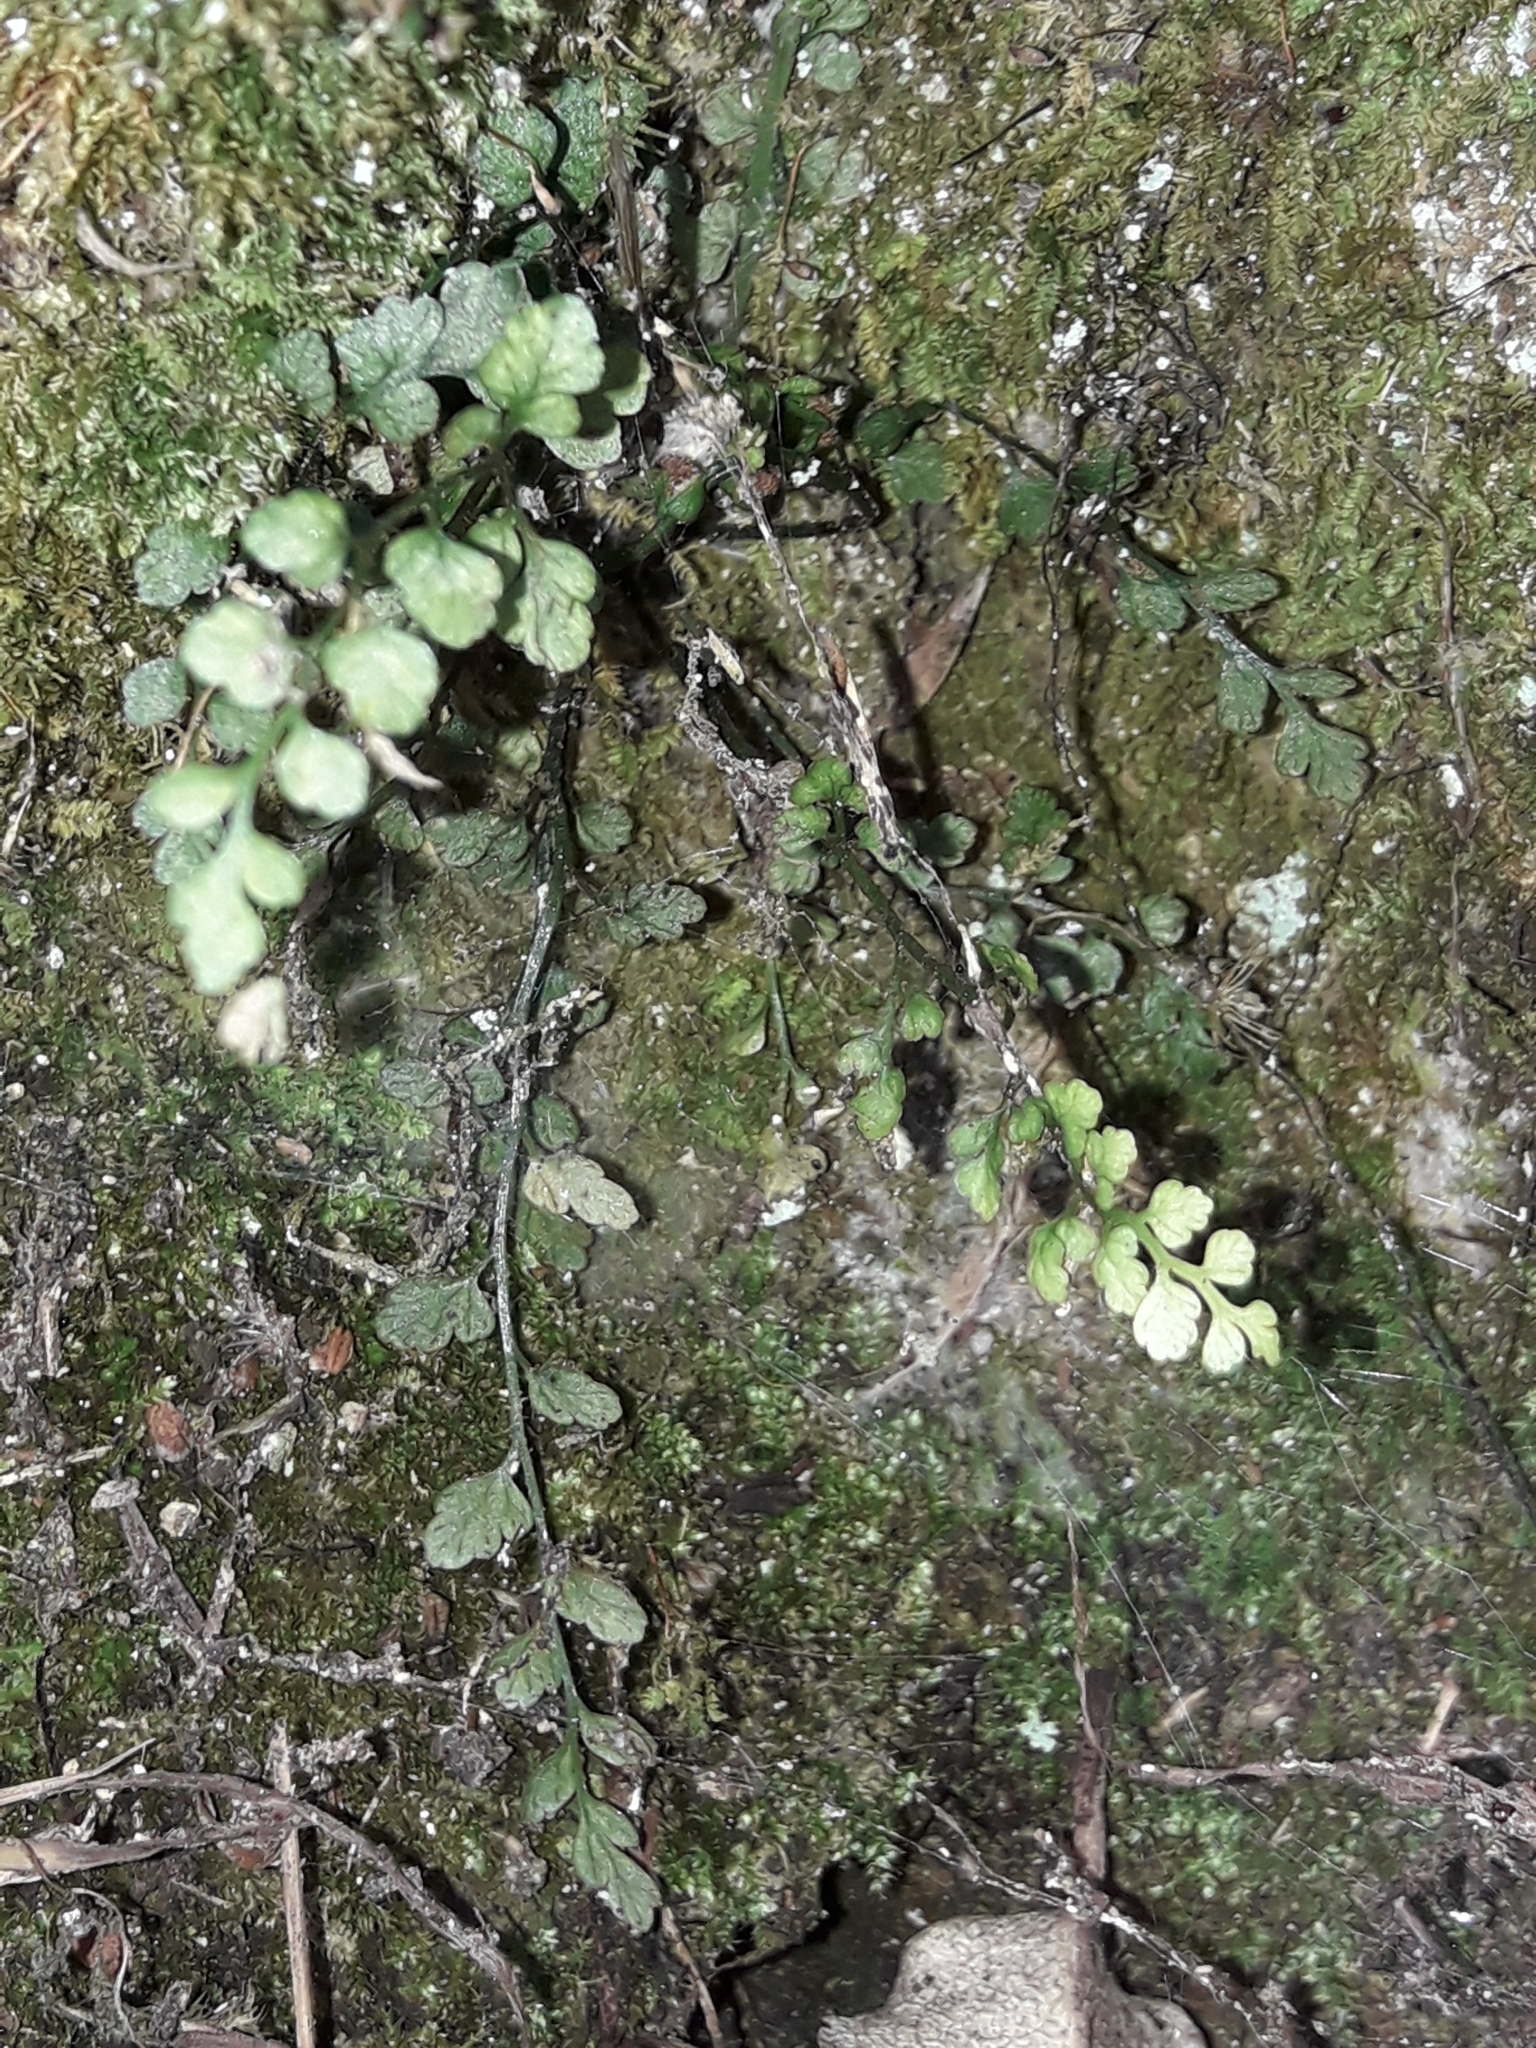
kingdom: Plantae
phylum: Tracheophyta
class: Polypodiopsida
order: Polypodiales
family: Aspleniaceae
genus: Asplenium
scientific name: Asplenium hookerianum
